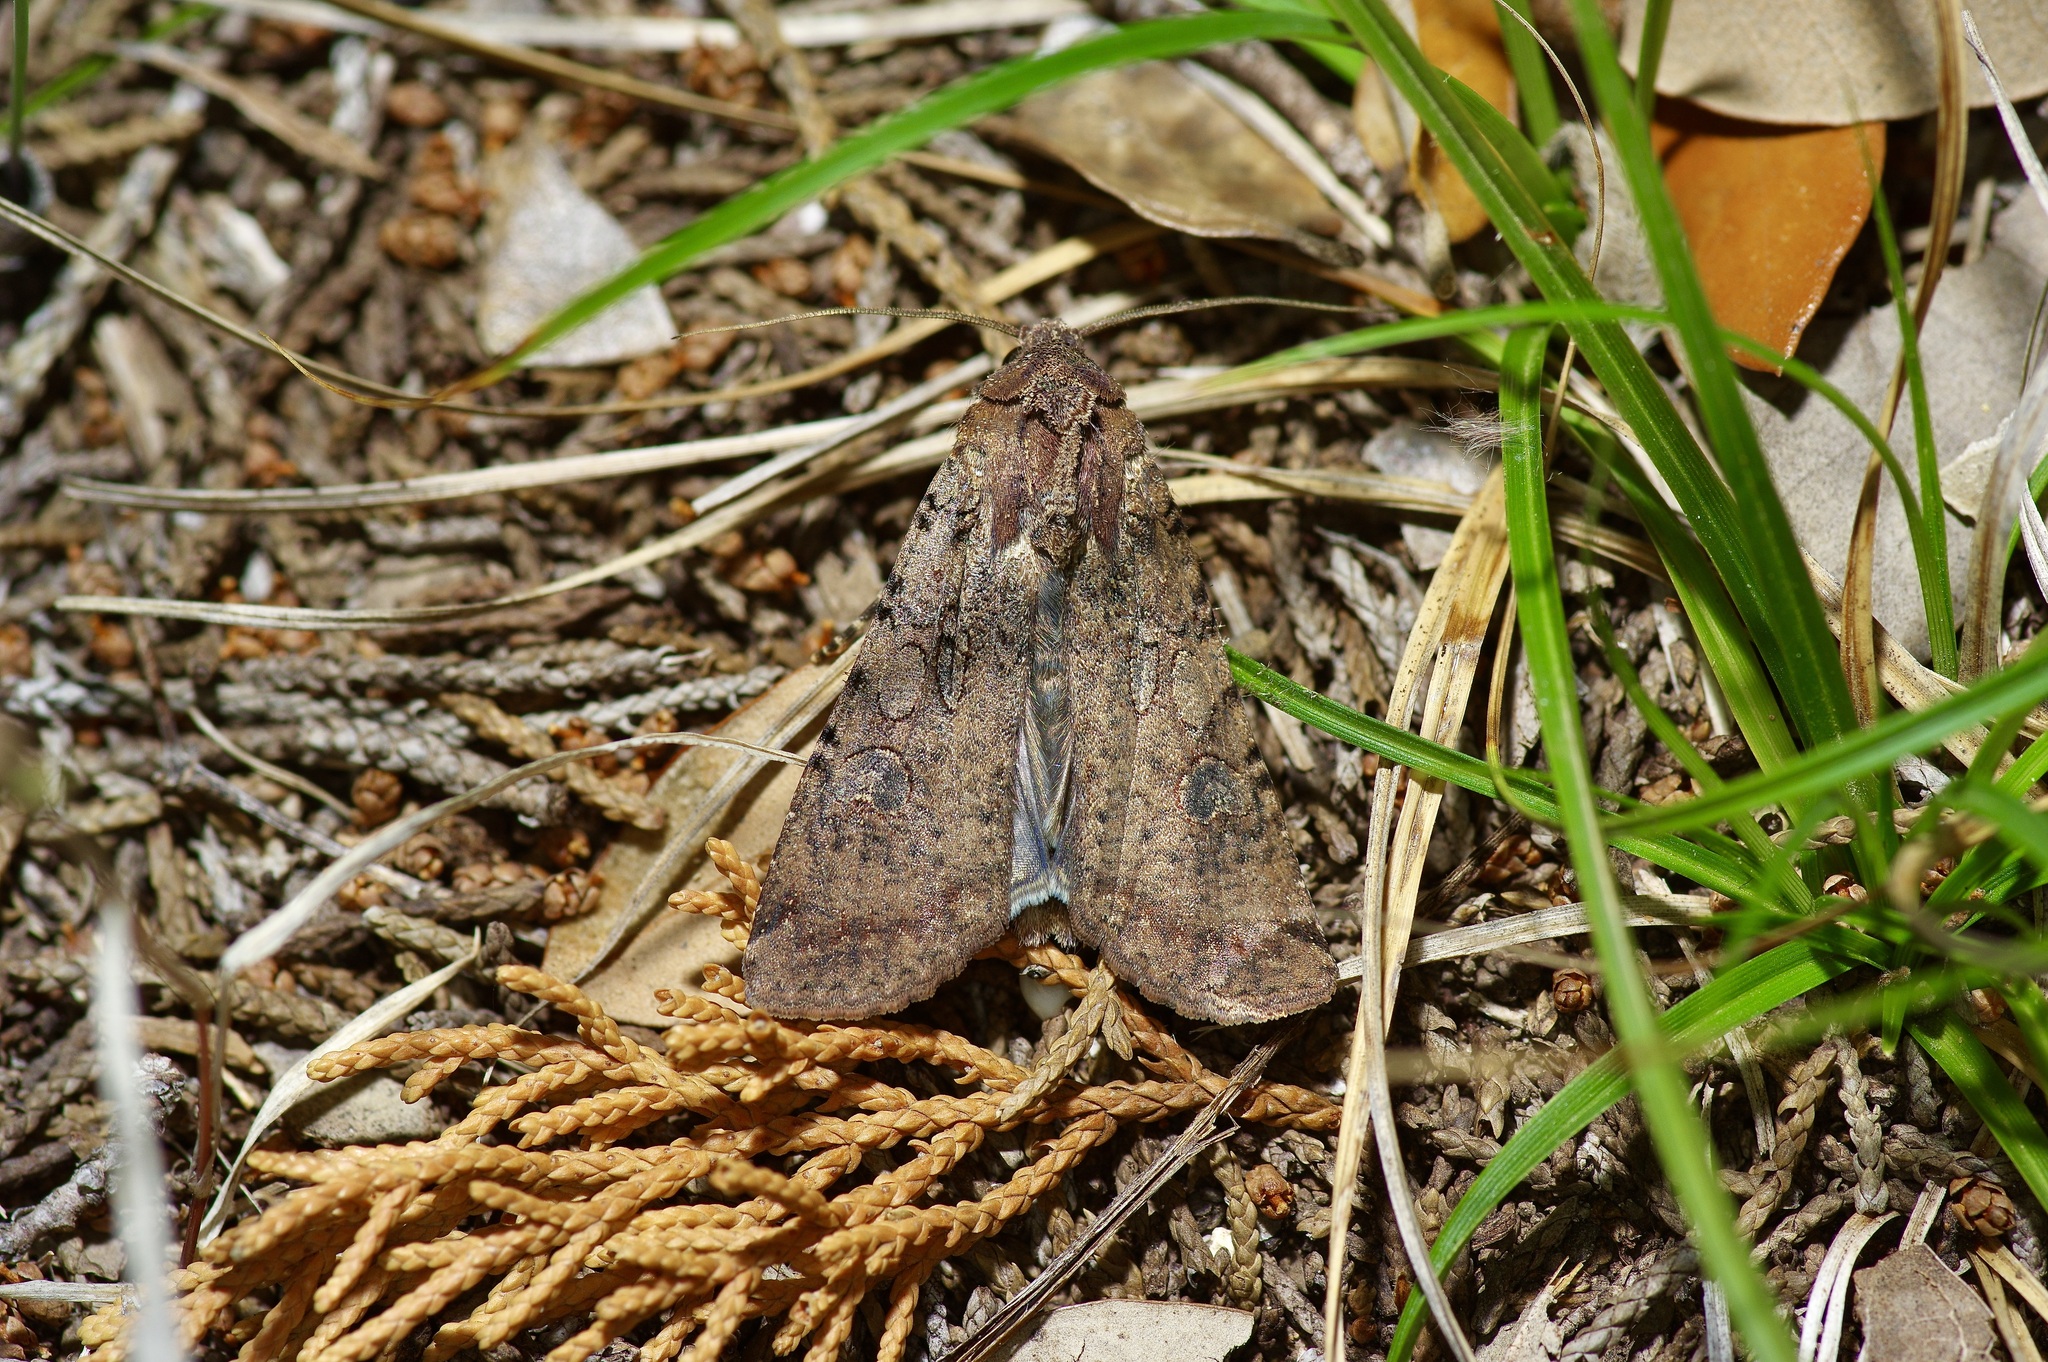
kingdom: Animalia
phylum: Arthropoda
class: Insecta
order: Lepidoptera
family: Noctuidae
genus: Peridroma
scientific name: Peridroma saucia
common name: Pearly underwing
